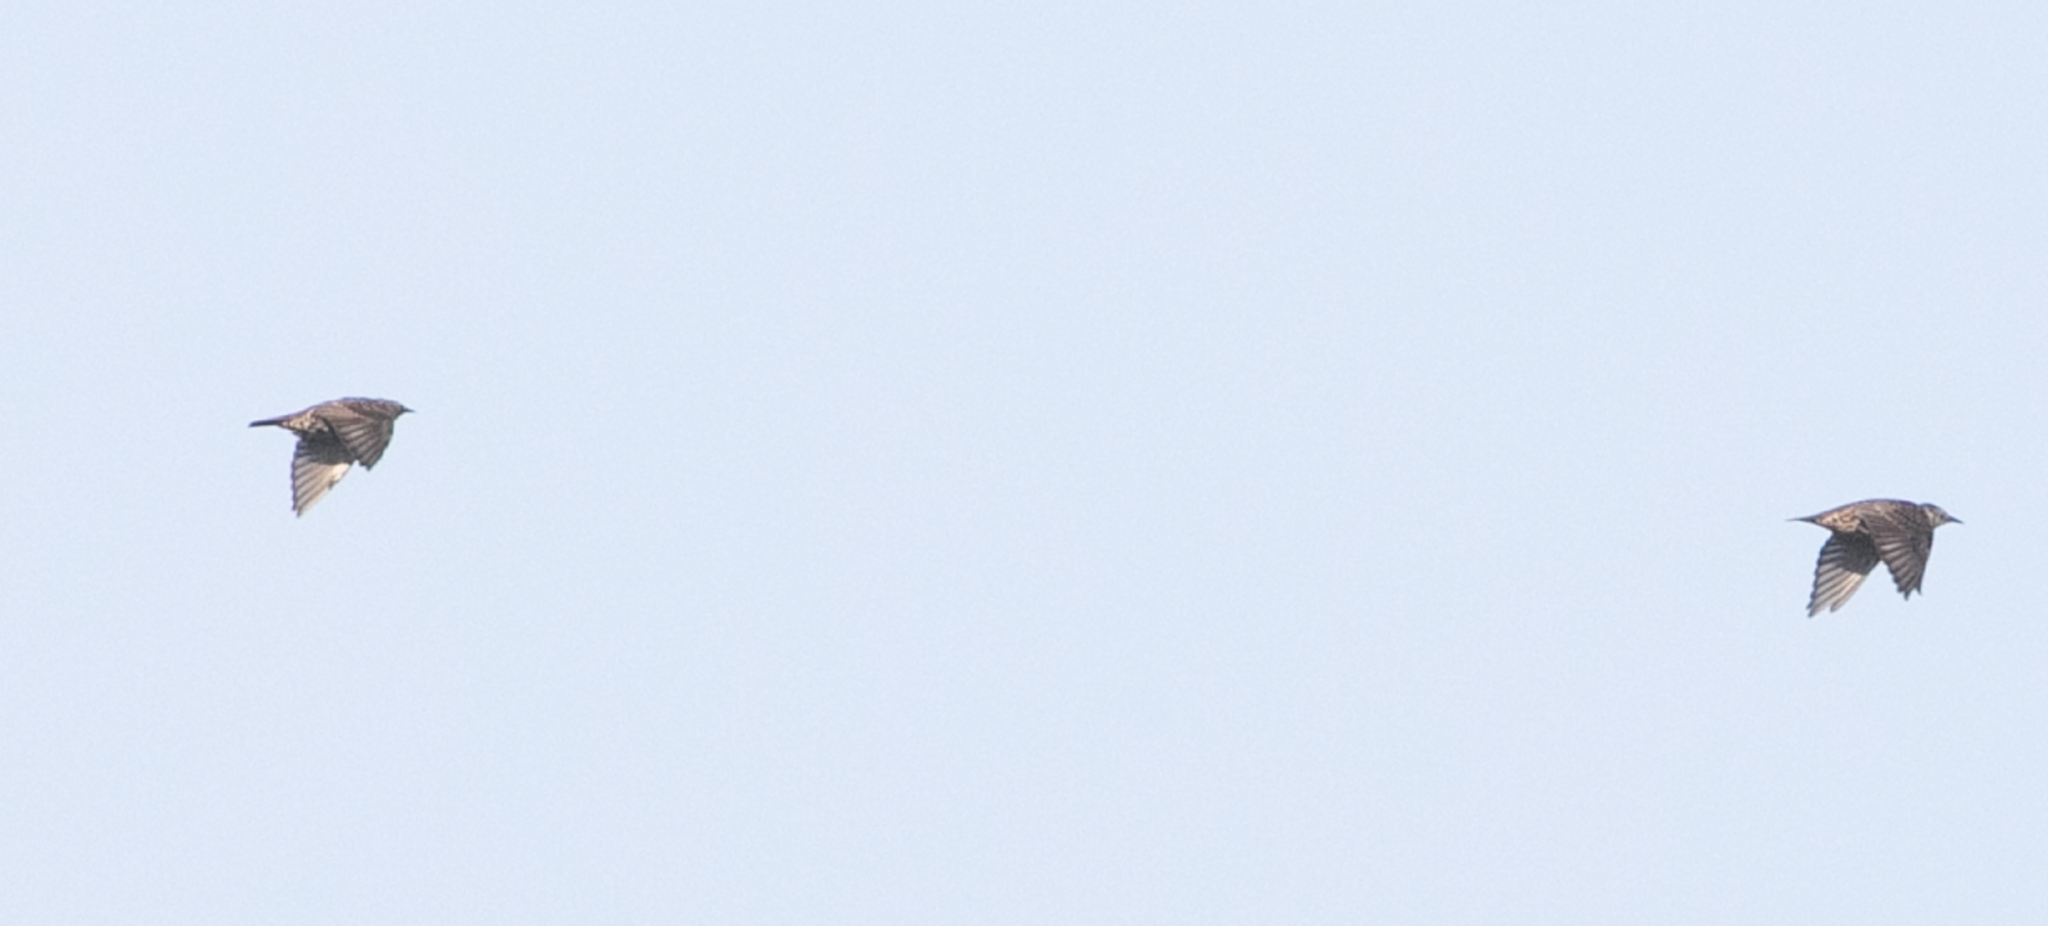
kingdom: Animalia
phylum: Chordata
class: Aves
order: Passeriformes
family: Sturnidae
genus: Sturnus
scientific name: Sturnus vulgaris
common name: Common starling
